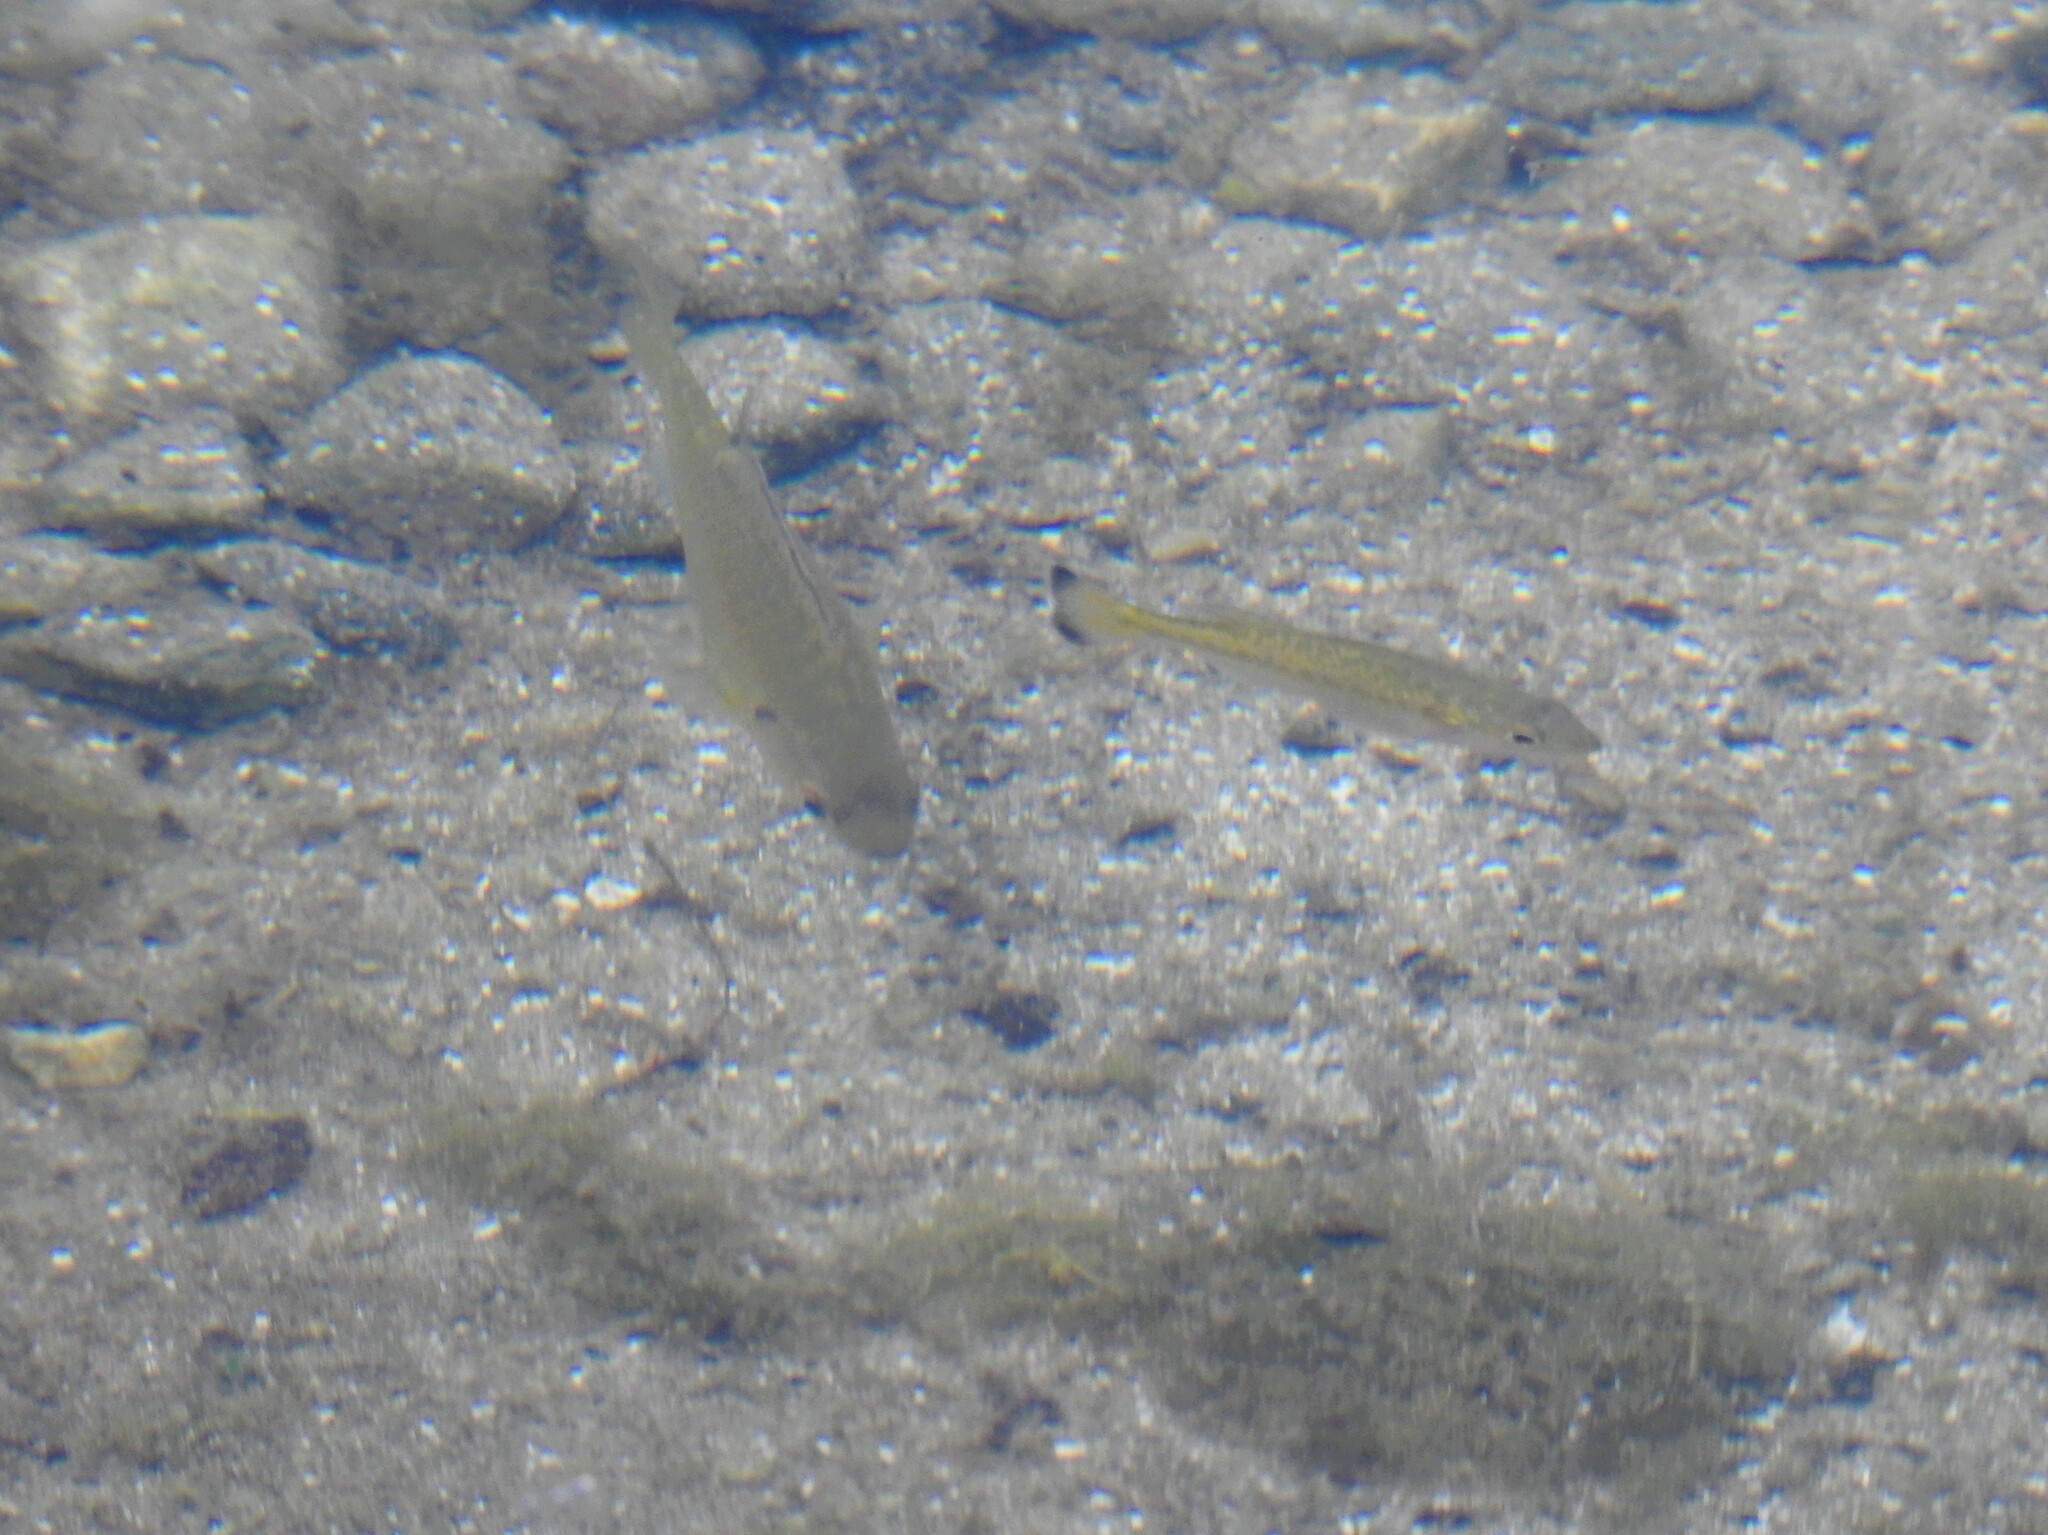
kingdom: Animalia
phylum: Chordata
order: Perciformes
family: Centrarchidae
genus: Lepomis
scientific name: Lepomis gibbosus
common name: Pumpkinseed
